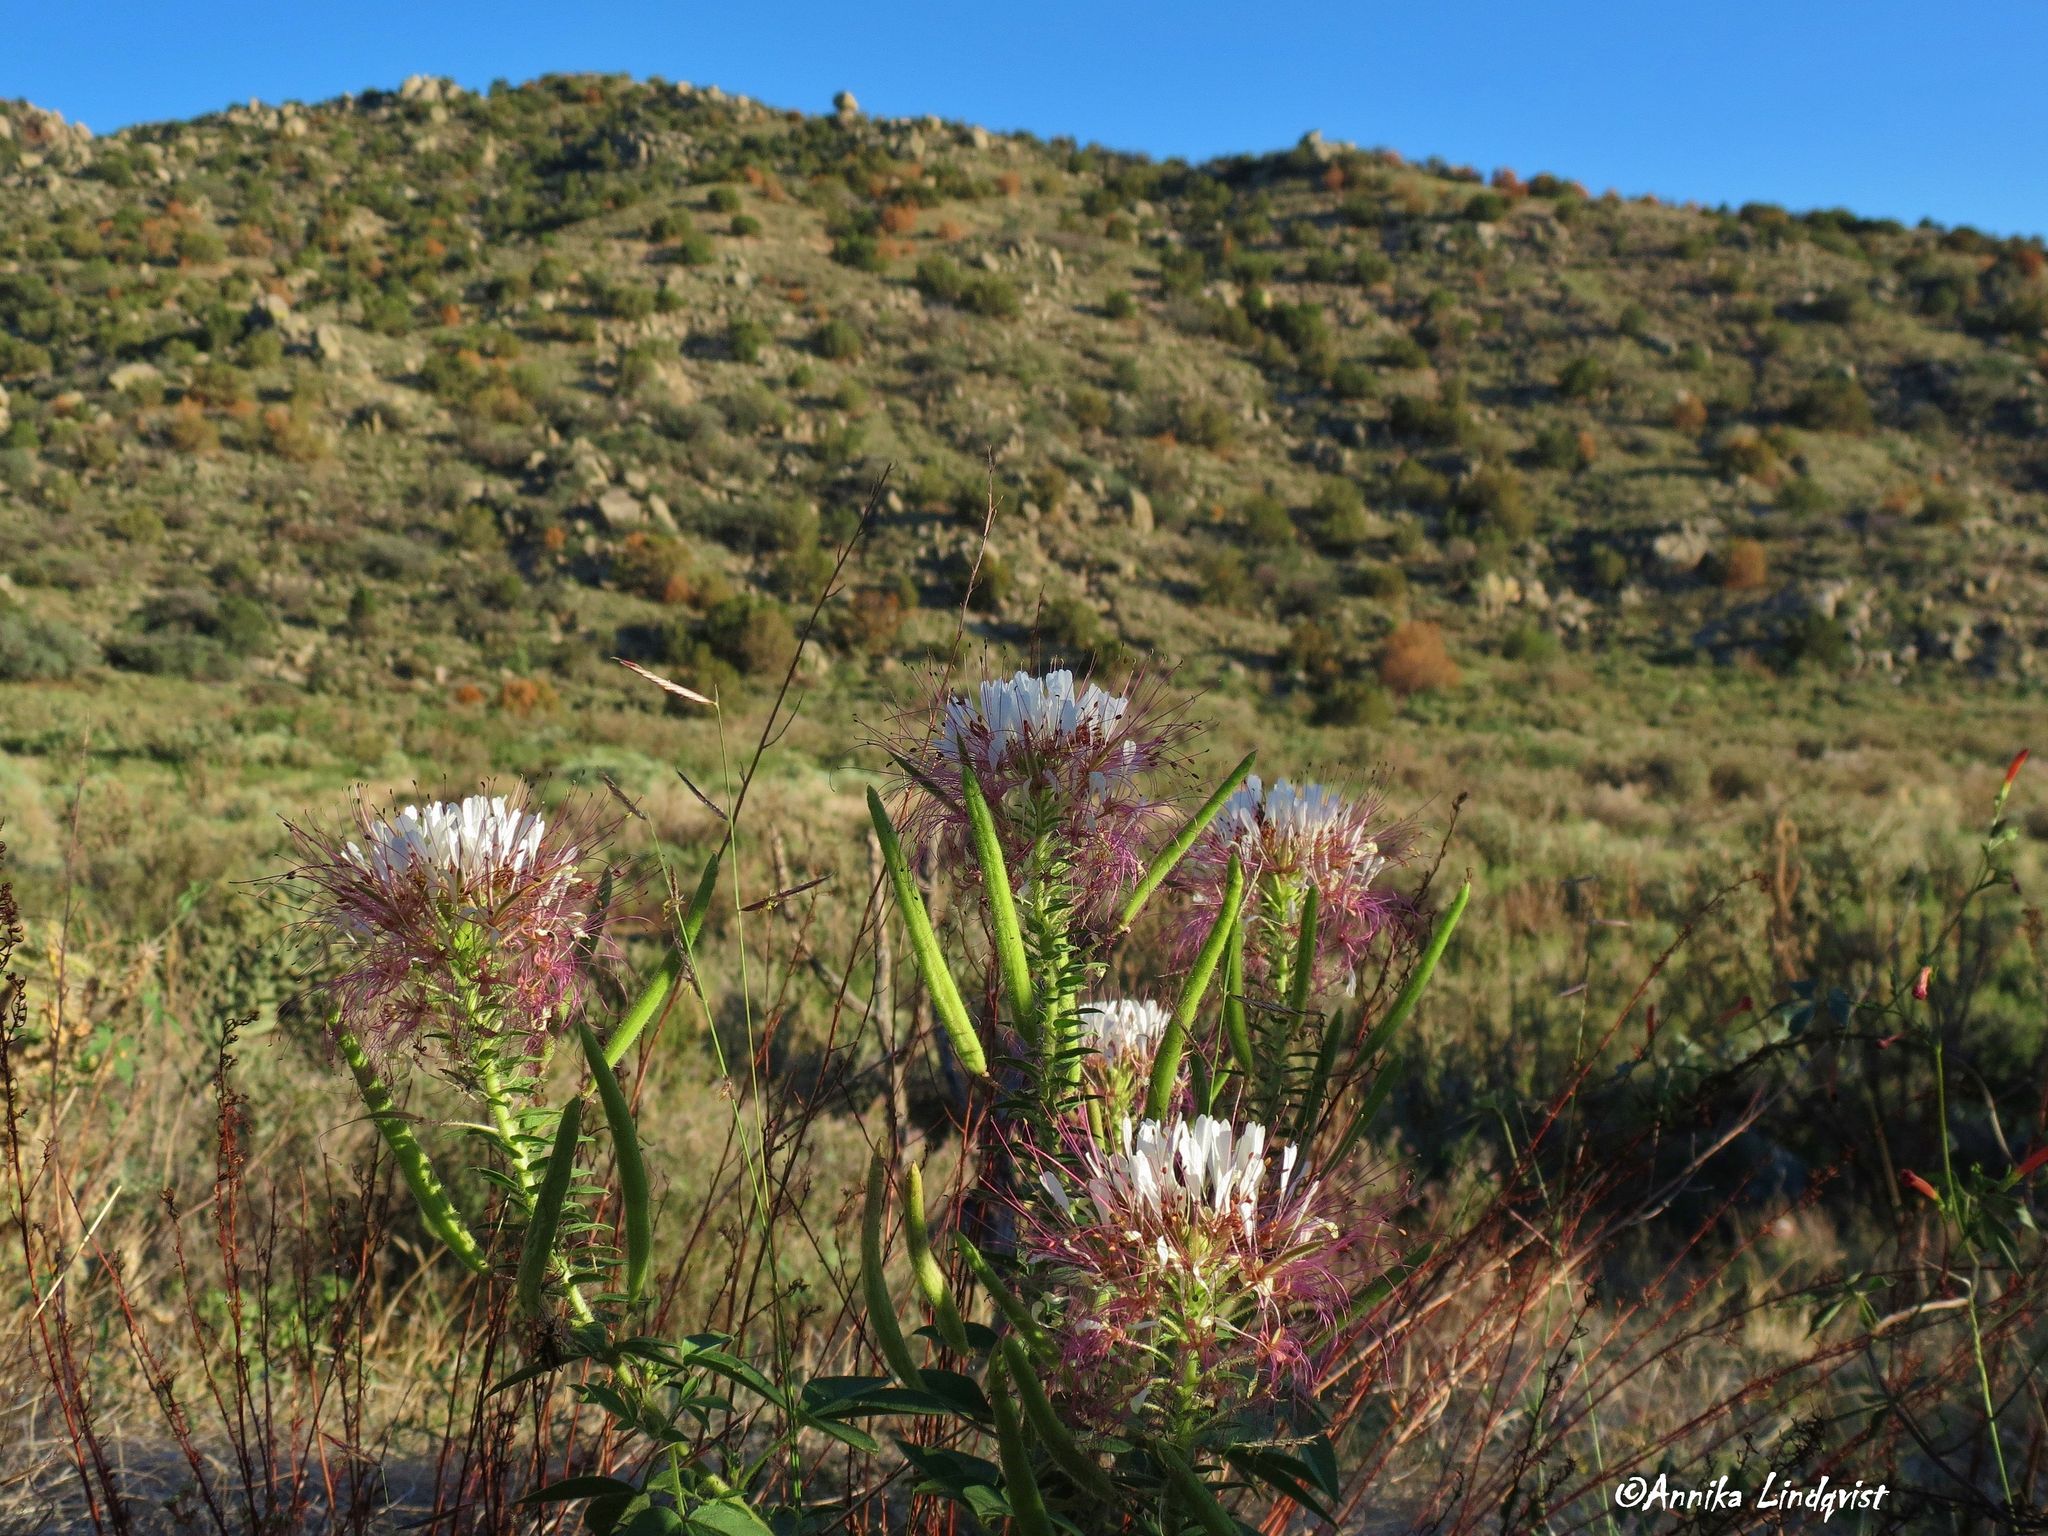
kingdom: Plantae
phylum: Tracheophyta
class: Magnoliopsida
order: Brassicales
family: Cleomaceae
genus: Polanisia
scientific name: Polanisia dodecandra
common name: Clammyweed
